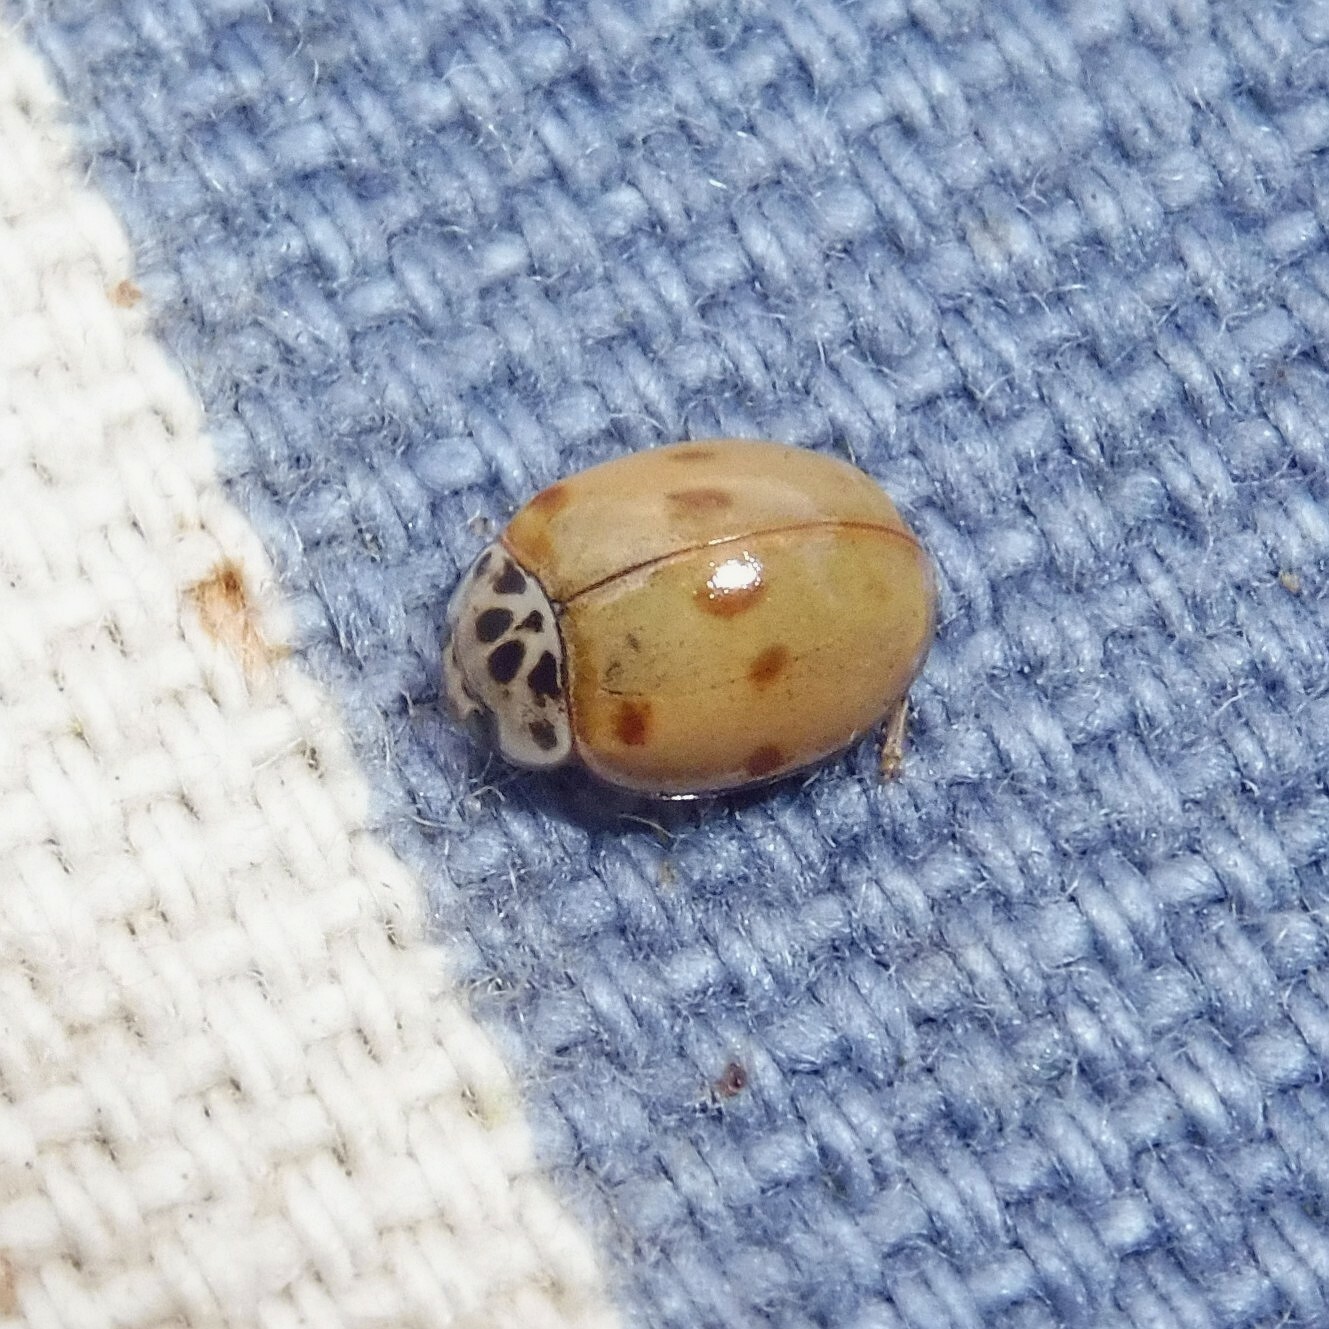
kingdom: Animalia
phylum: Arthropoda
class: Insecta
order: Coleoptera
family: Coccinellidae
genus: Adalia
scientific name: Adalia decempunctata
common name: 10-spot ladybird
